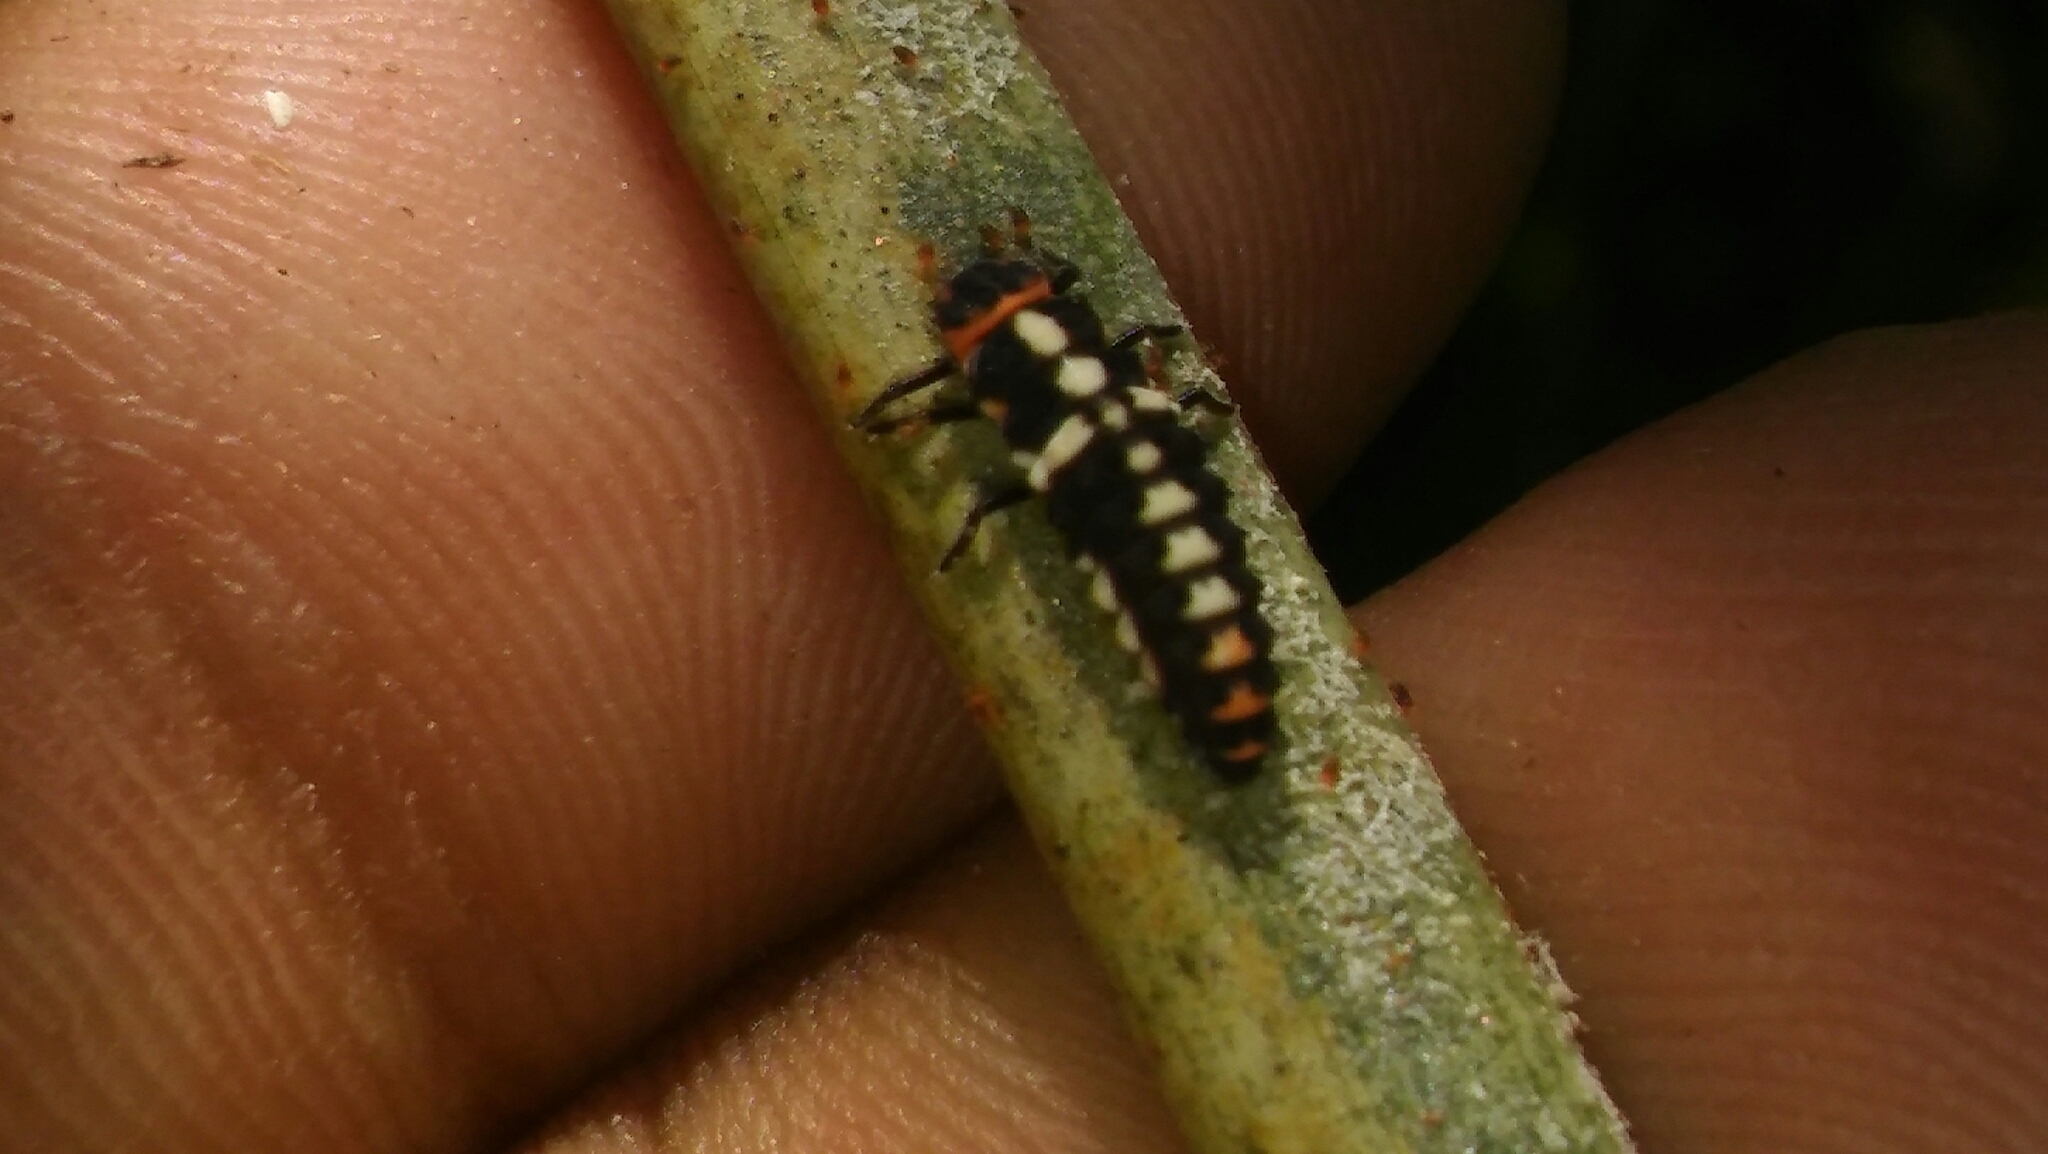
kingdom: Animalia
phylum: Arthropoda
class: Insecta
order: Coleoptera
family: Coccinellidae
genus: Eriopis
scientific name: Eriopis connexa
